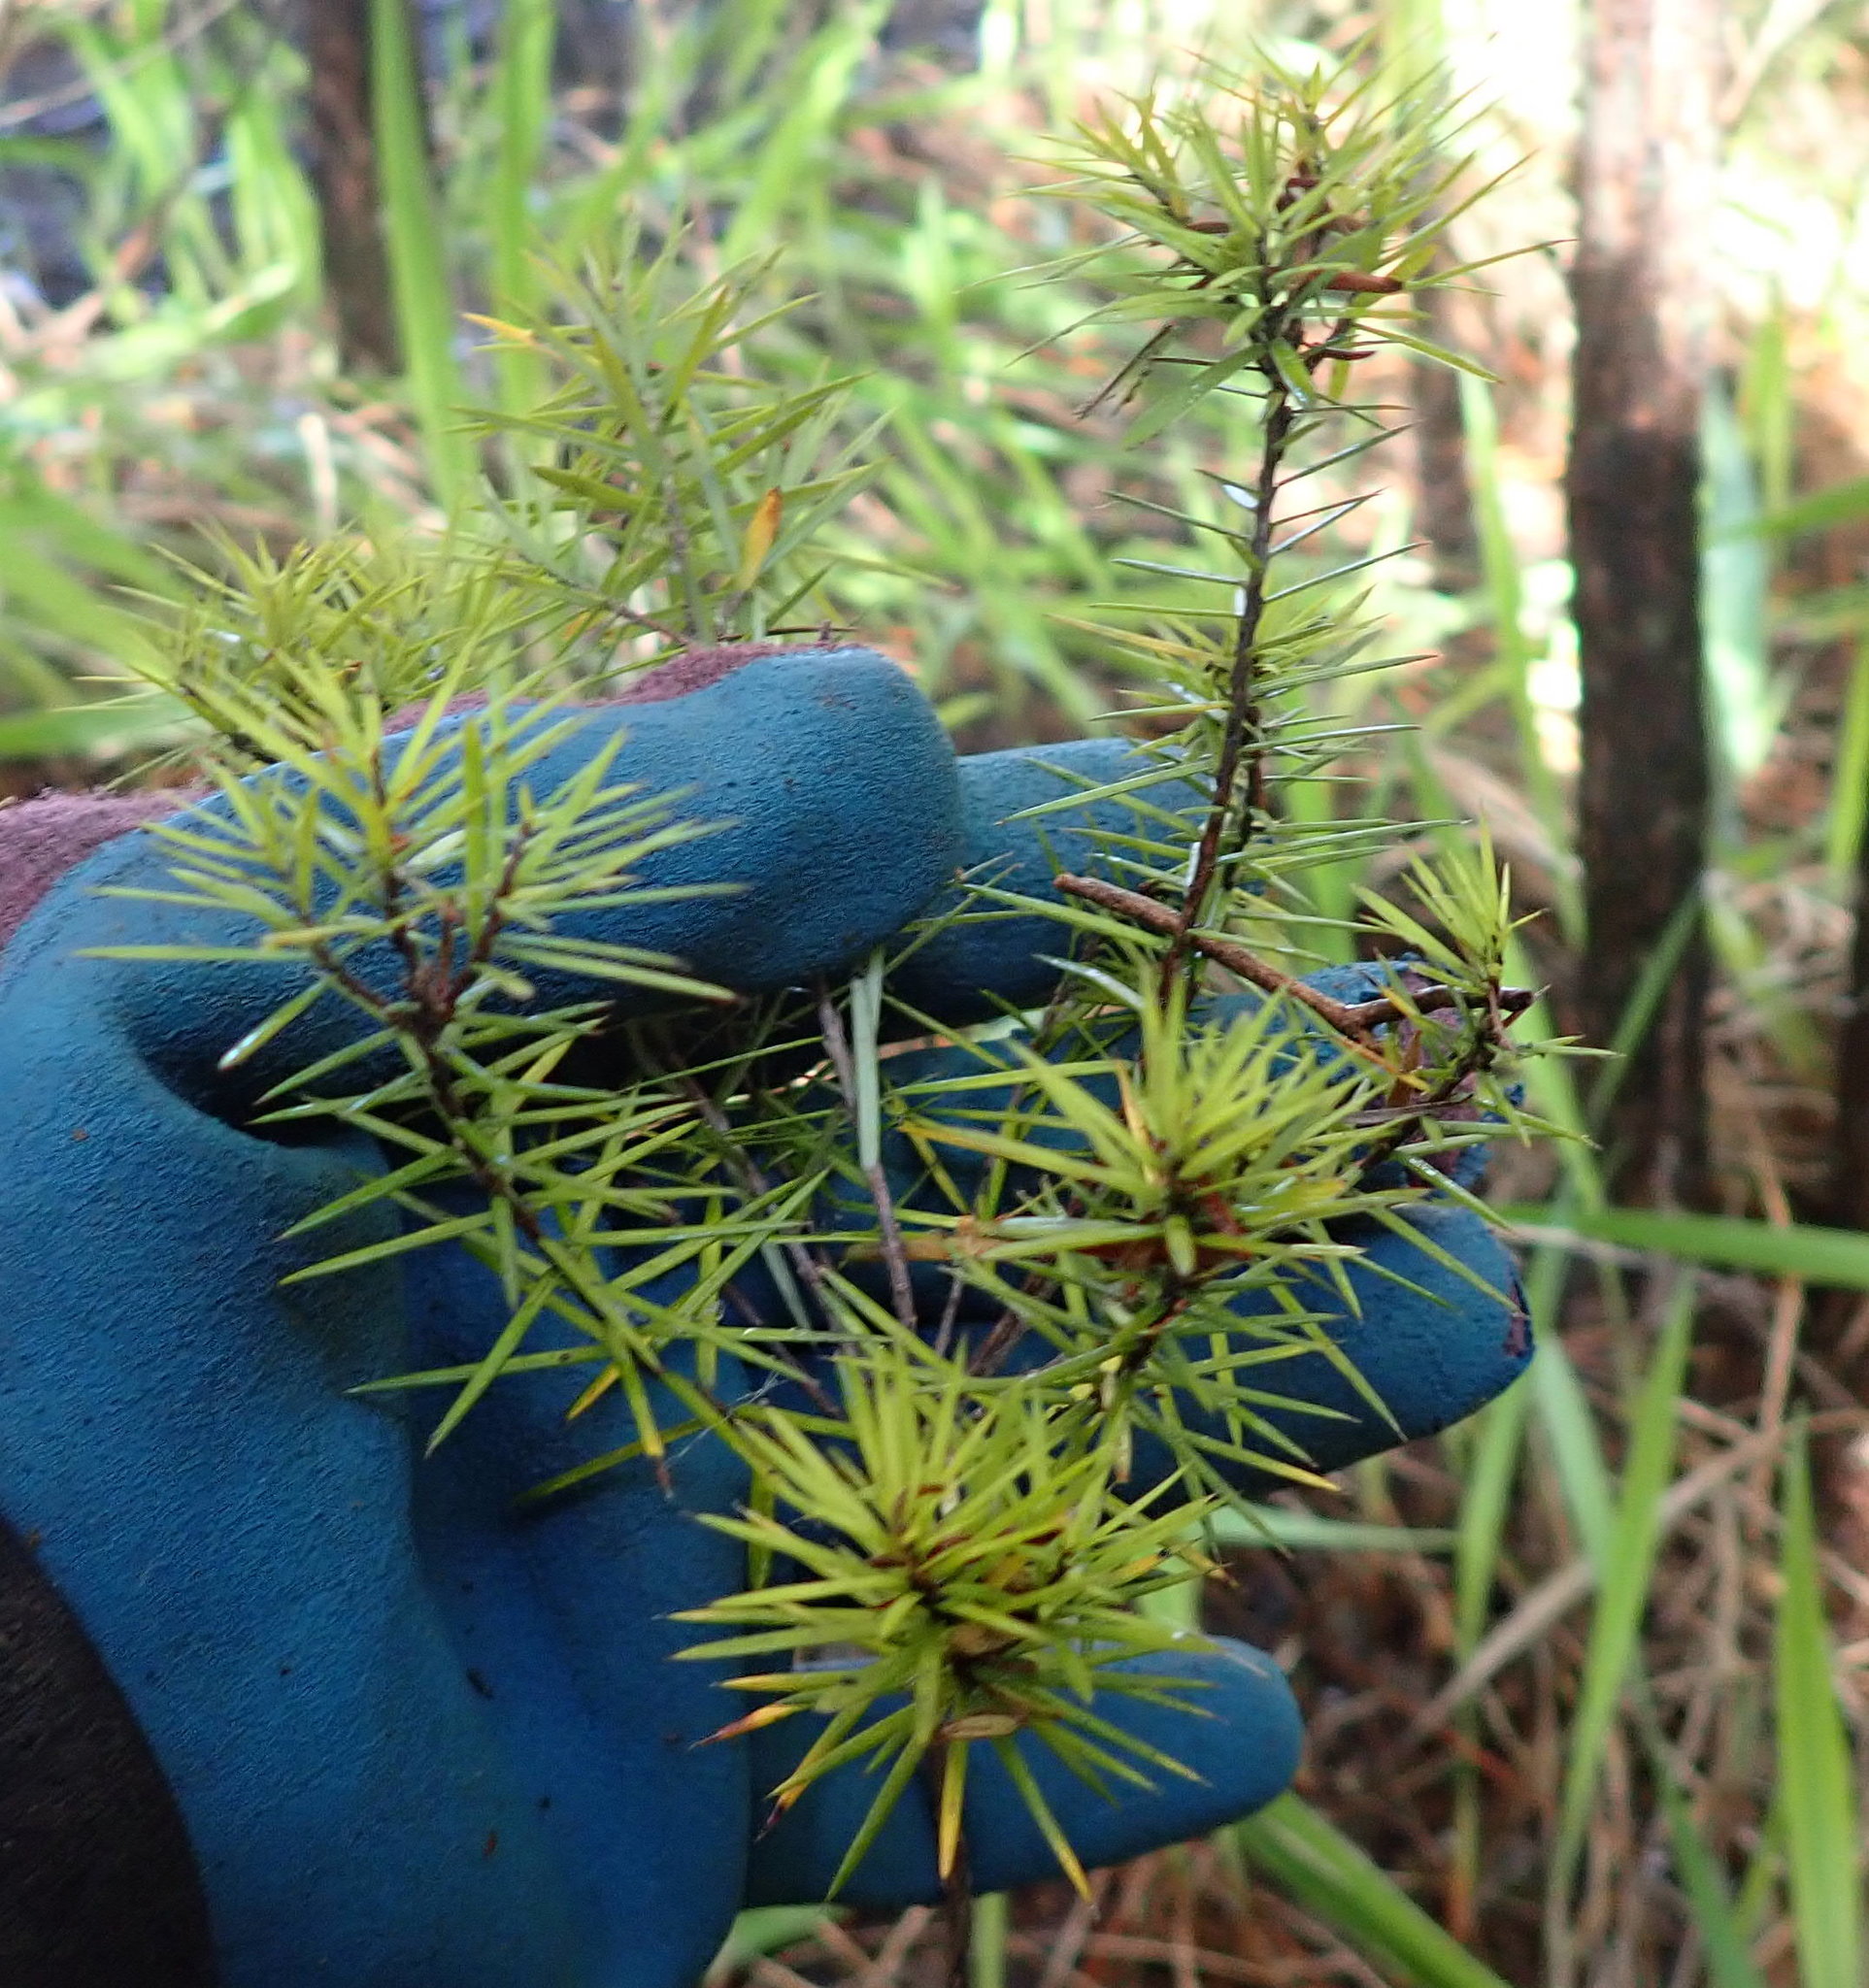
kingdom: Plantae
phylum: Tracheophyta
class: Magnoliopsida
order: Ericales
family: Ericaceae
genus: Leptecophylla
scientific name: Leptecophylla juniperina
